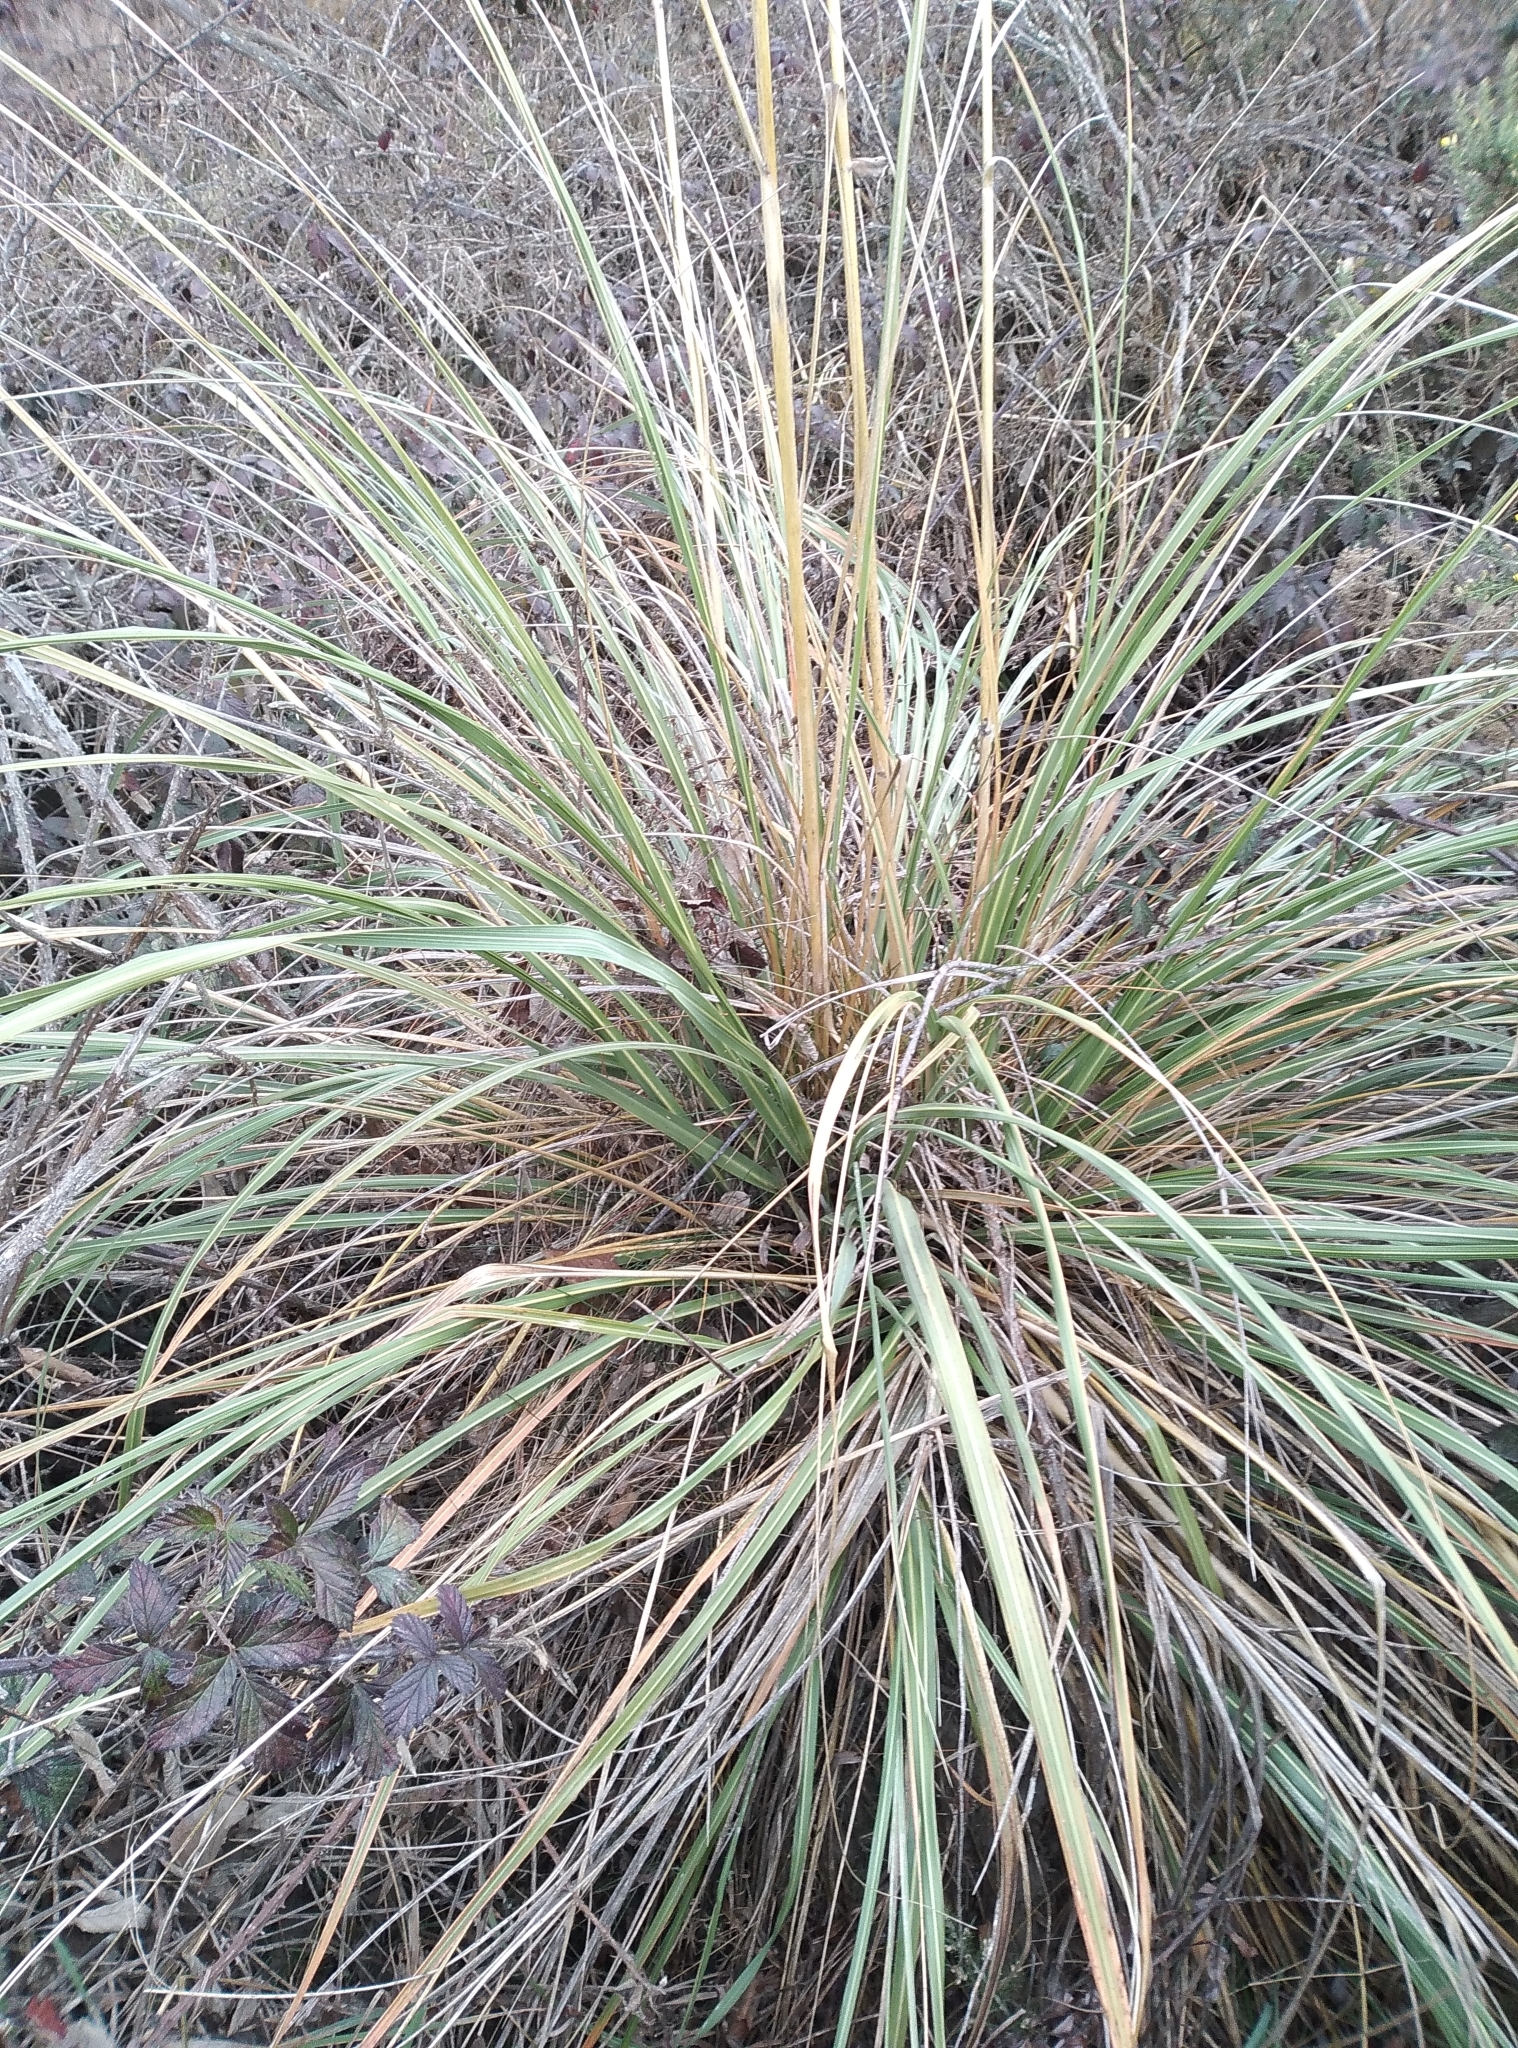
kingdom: Plantae
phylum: Tracheophyta
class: Liliopsida
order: Poales
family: Poaceae
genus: Austroderia
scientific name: Austroderia richardii
